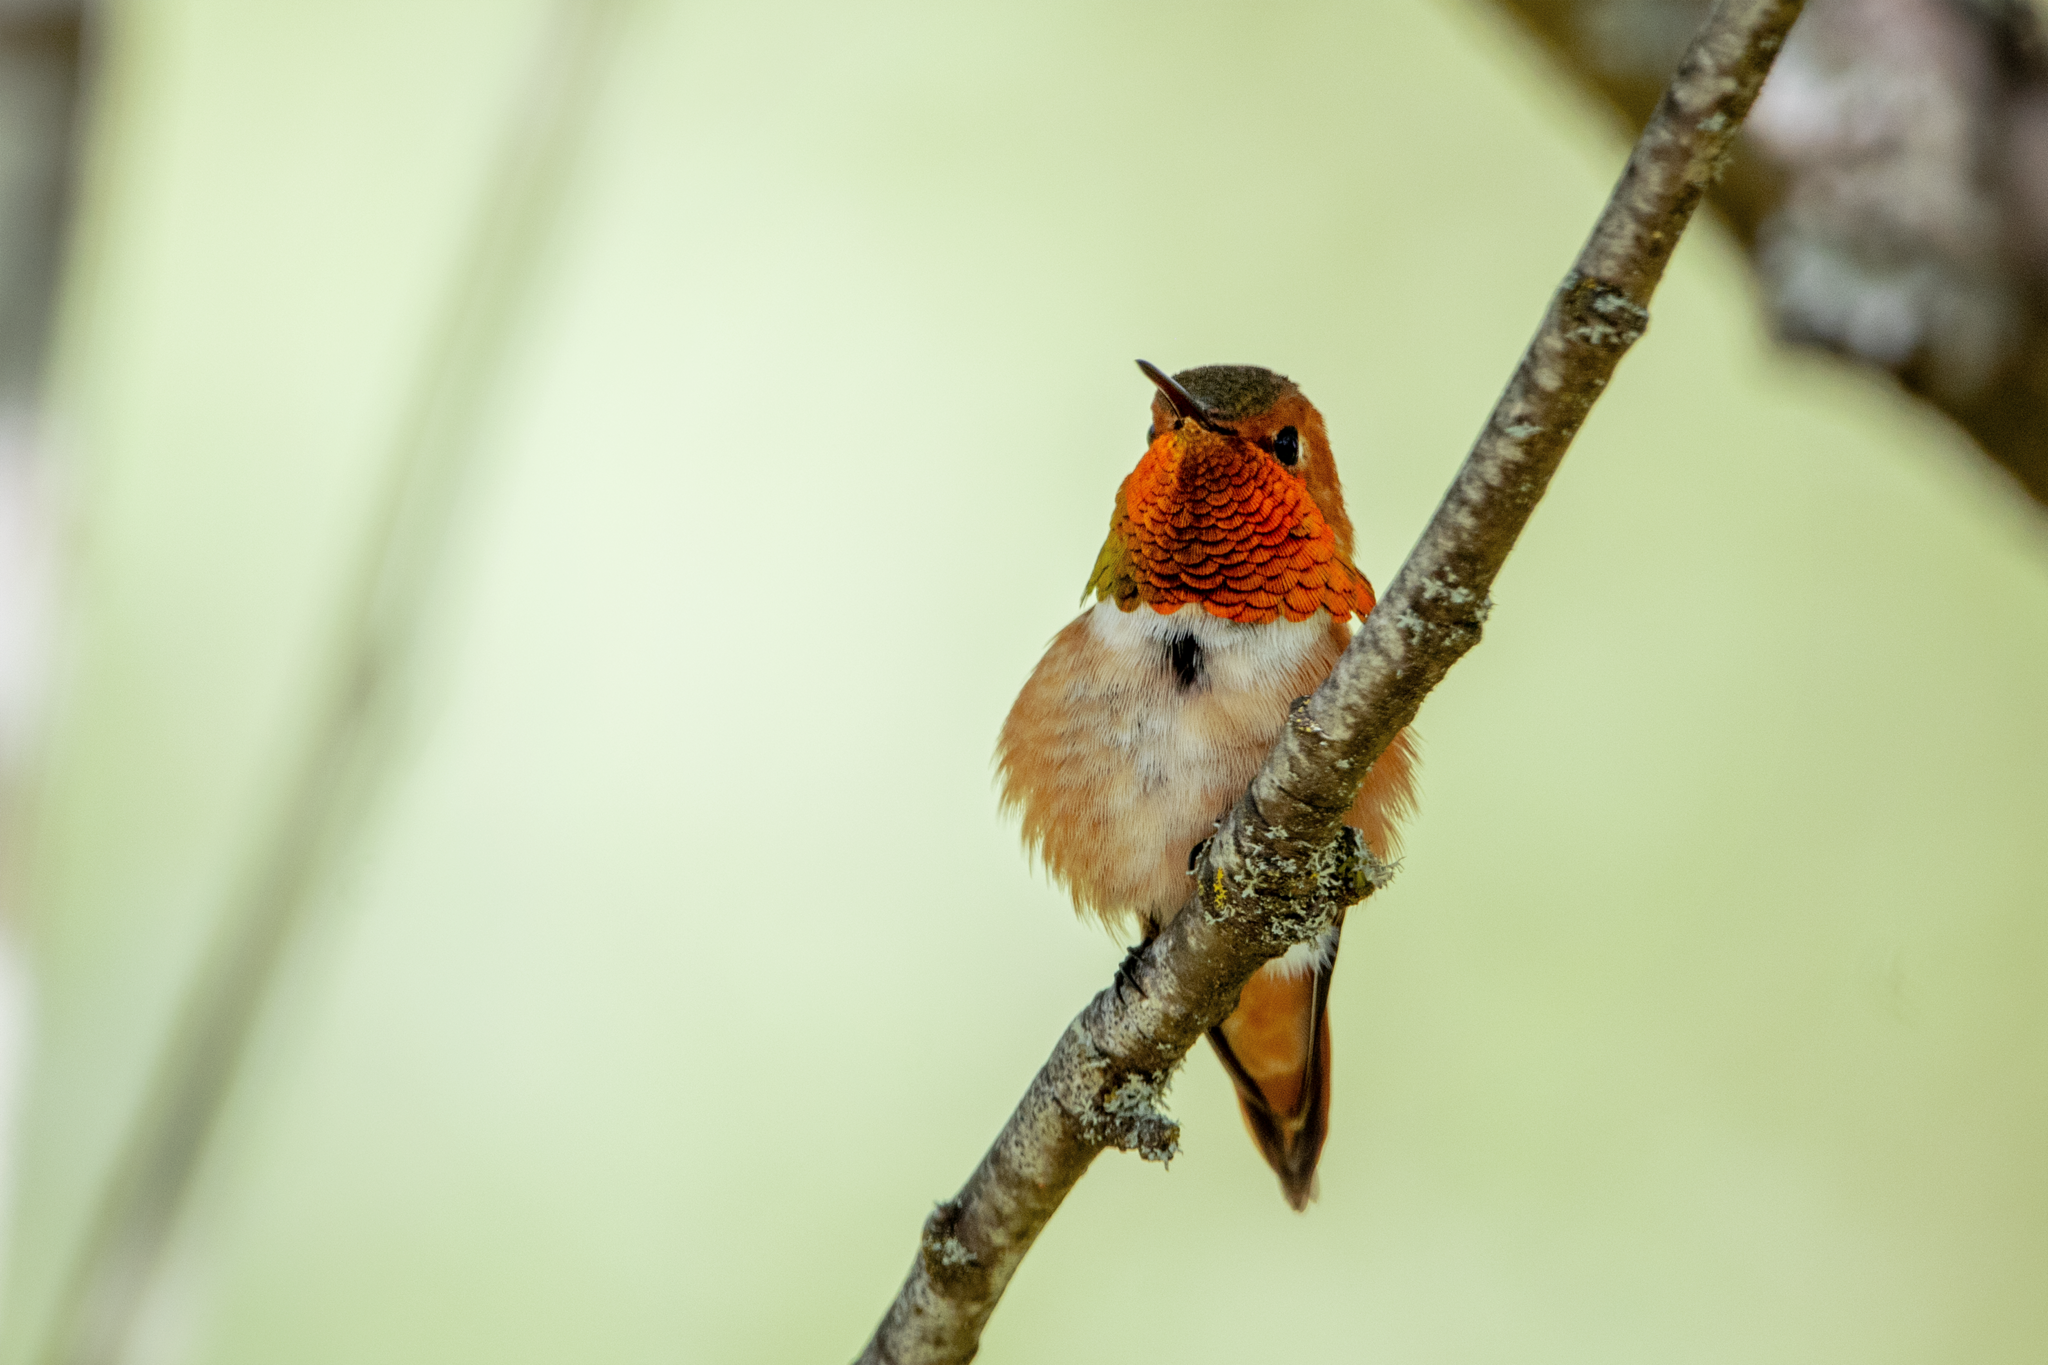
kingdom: Animalia
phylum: Chordata
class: Aves
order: Apodiformes
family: Trochilidae
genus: Selasphorus
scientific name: Selasphorus rufus
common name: Rufous hummingbird
